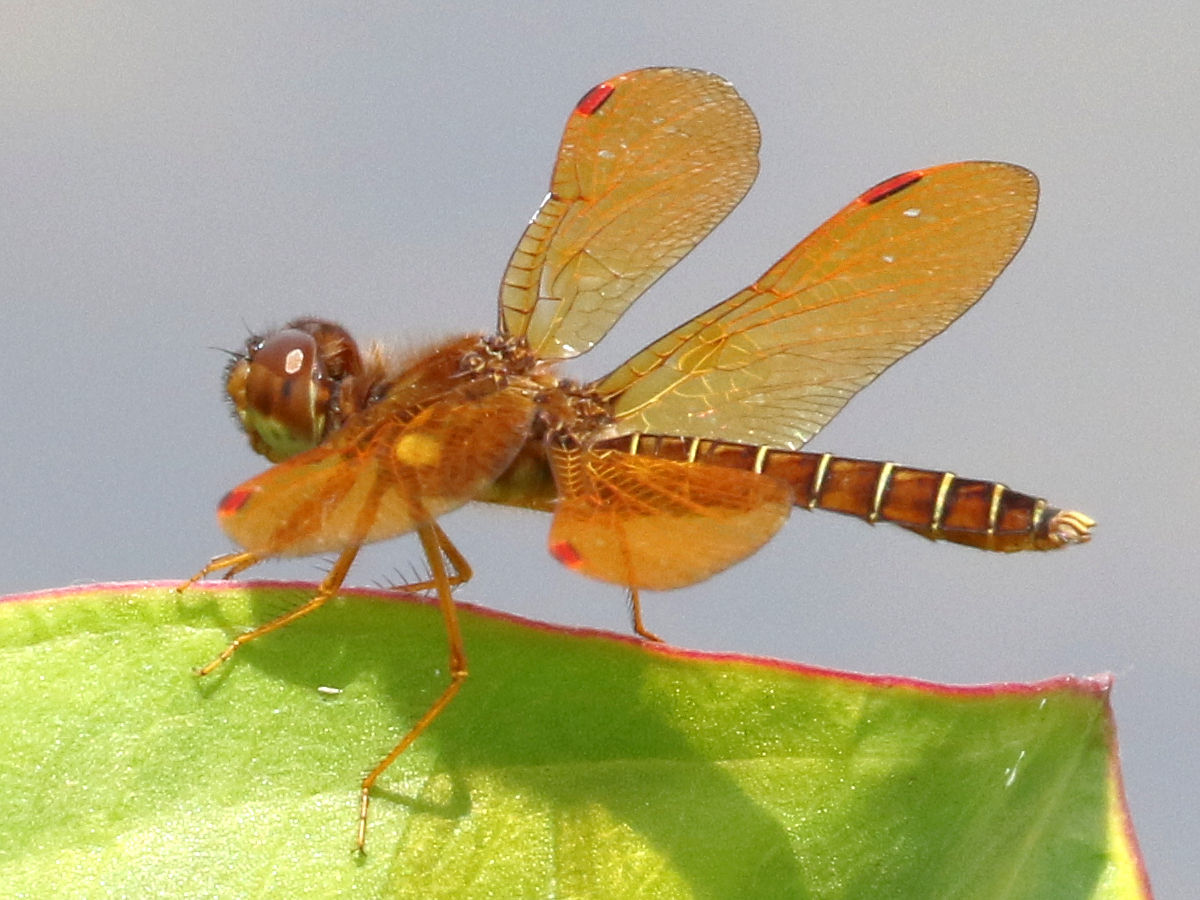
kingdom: Animalia
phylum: Arthropoda
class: Insecta
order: Odonata
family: Libellulidae
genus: Perithemis
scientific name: Perithemis tenera
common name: Eastern amberwing
